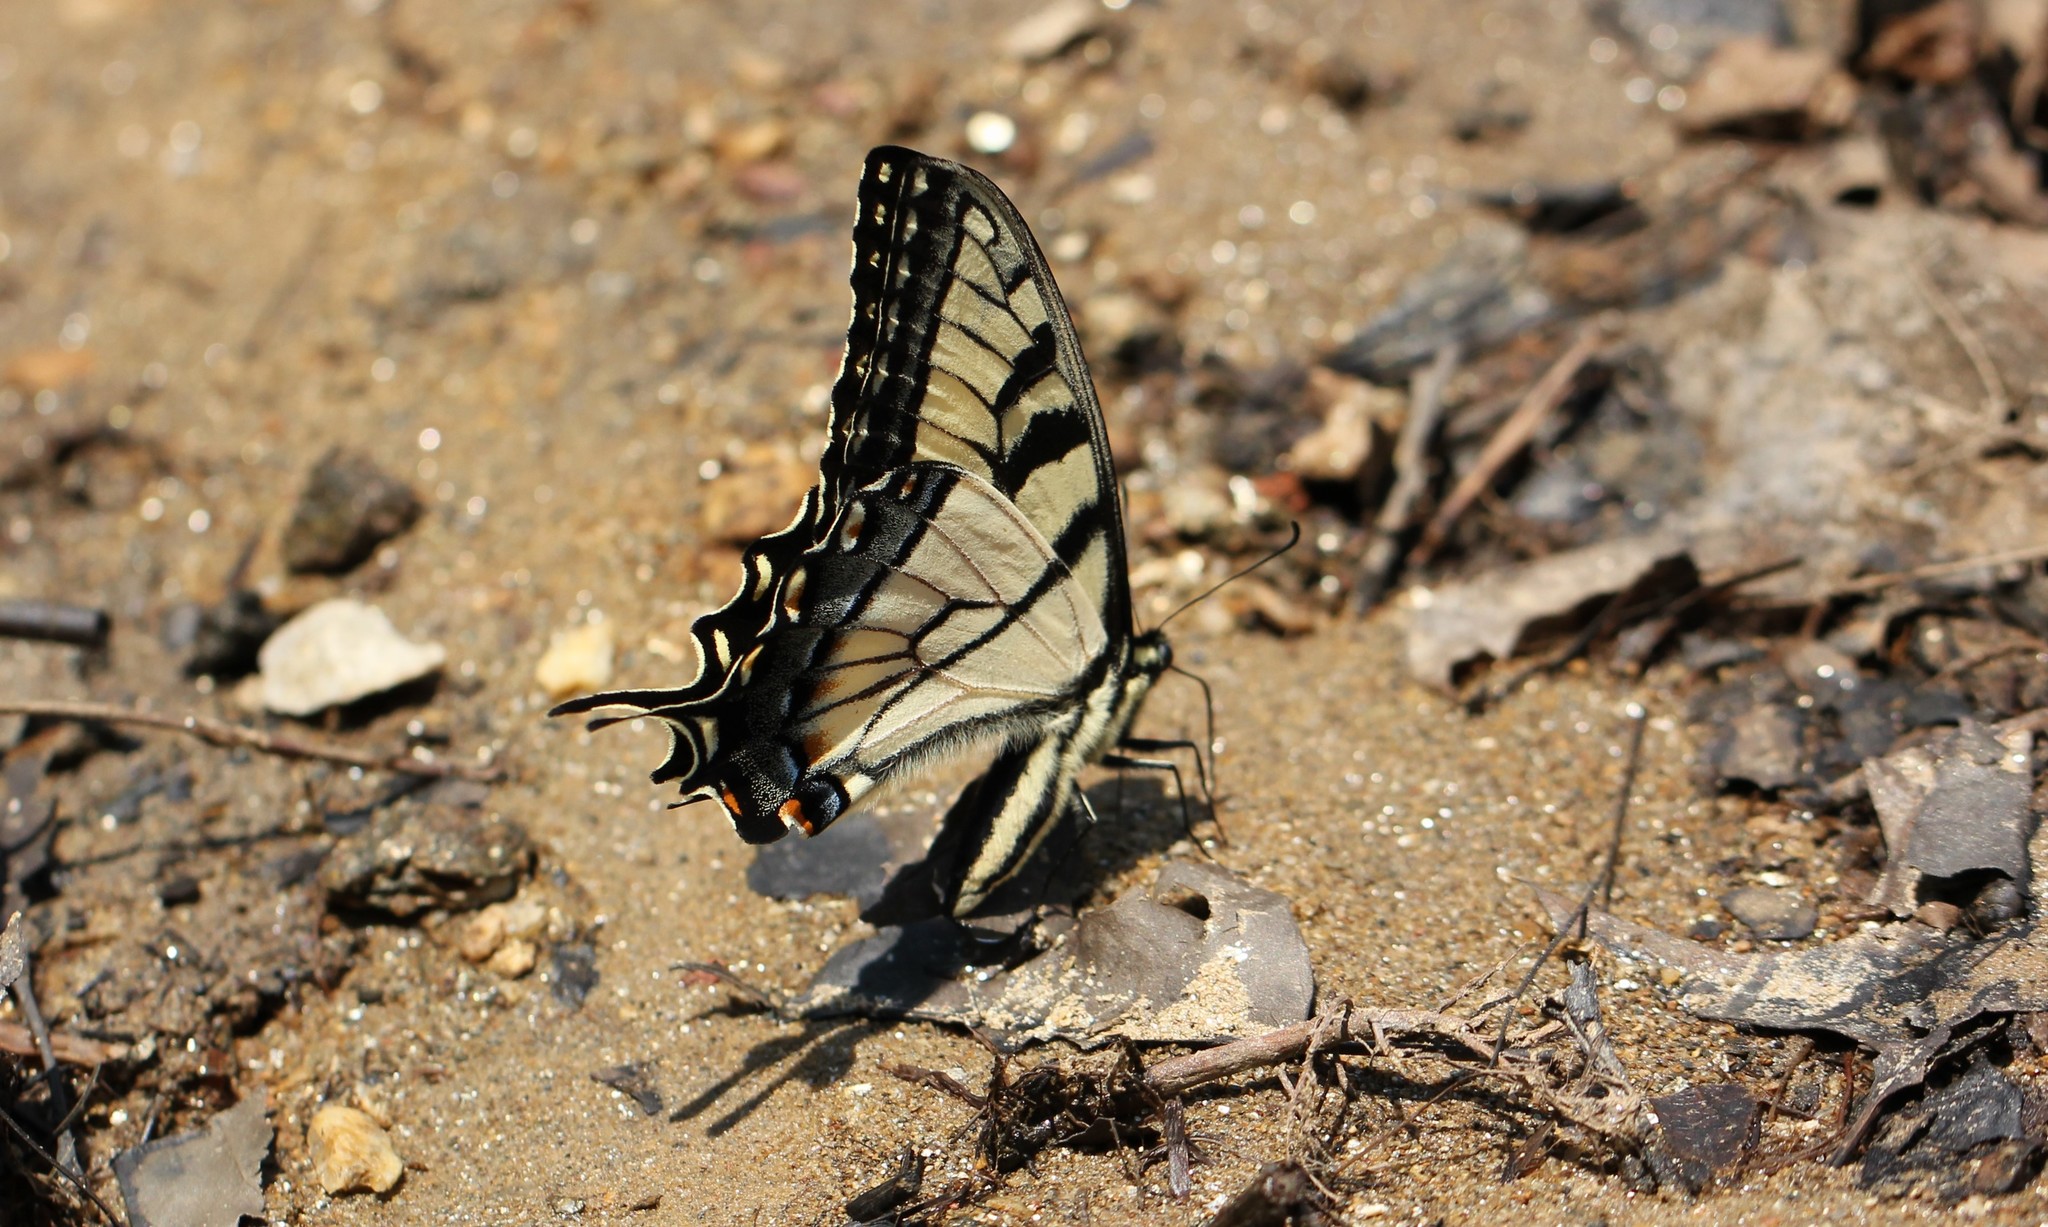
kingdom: Animalia
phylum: Arthropoda
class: Insecta
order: Lepidoptera
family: Papilionidae
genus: Papilio
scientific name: Papilio glaucus
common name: Tiger swallowtail
